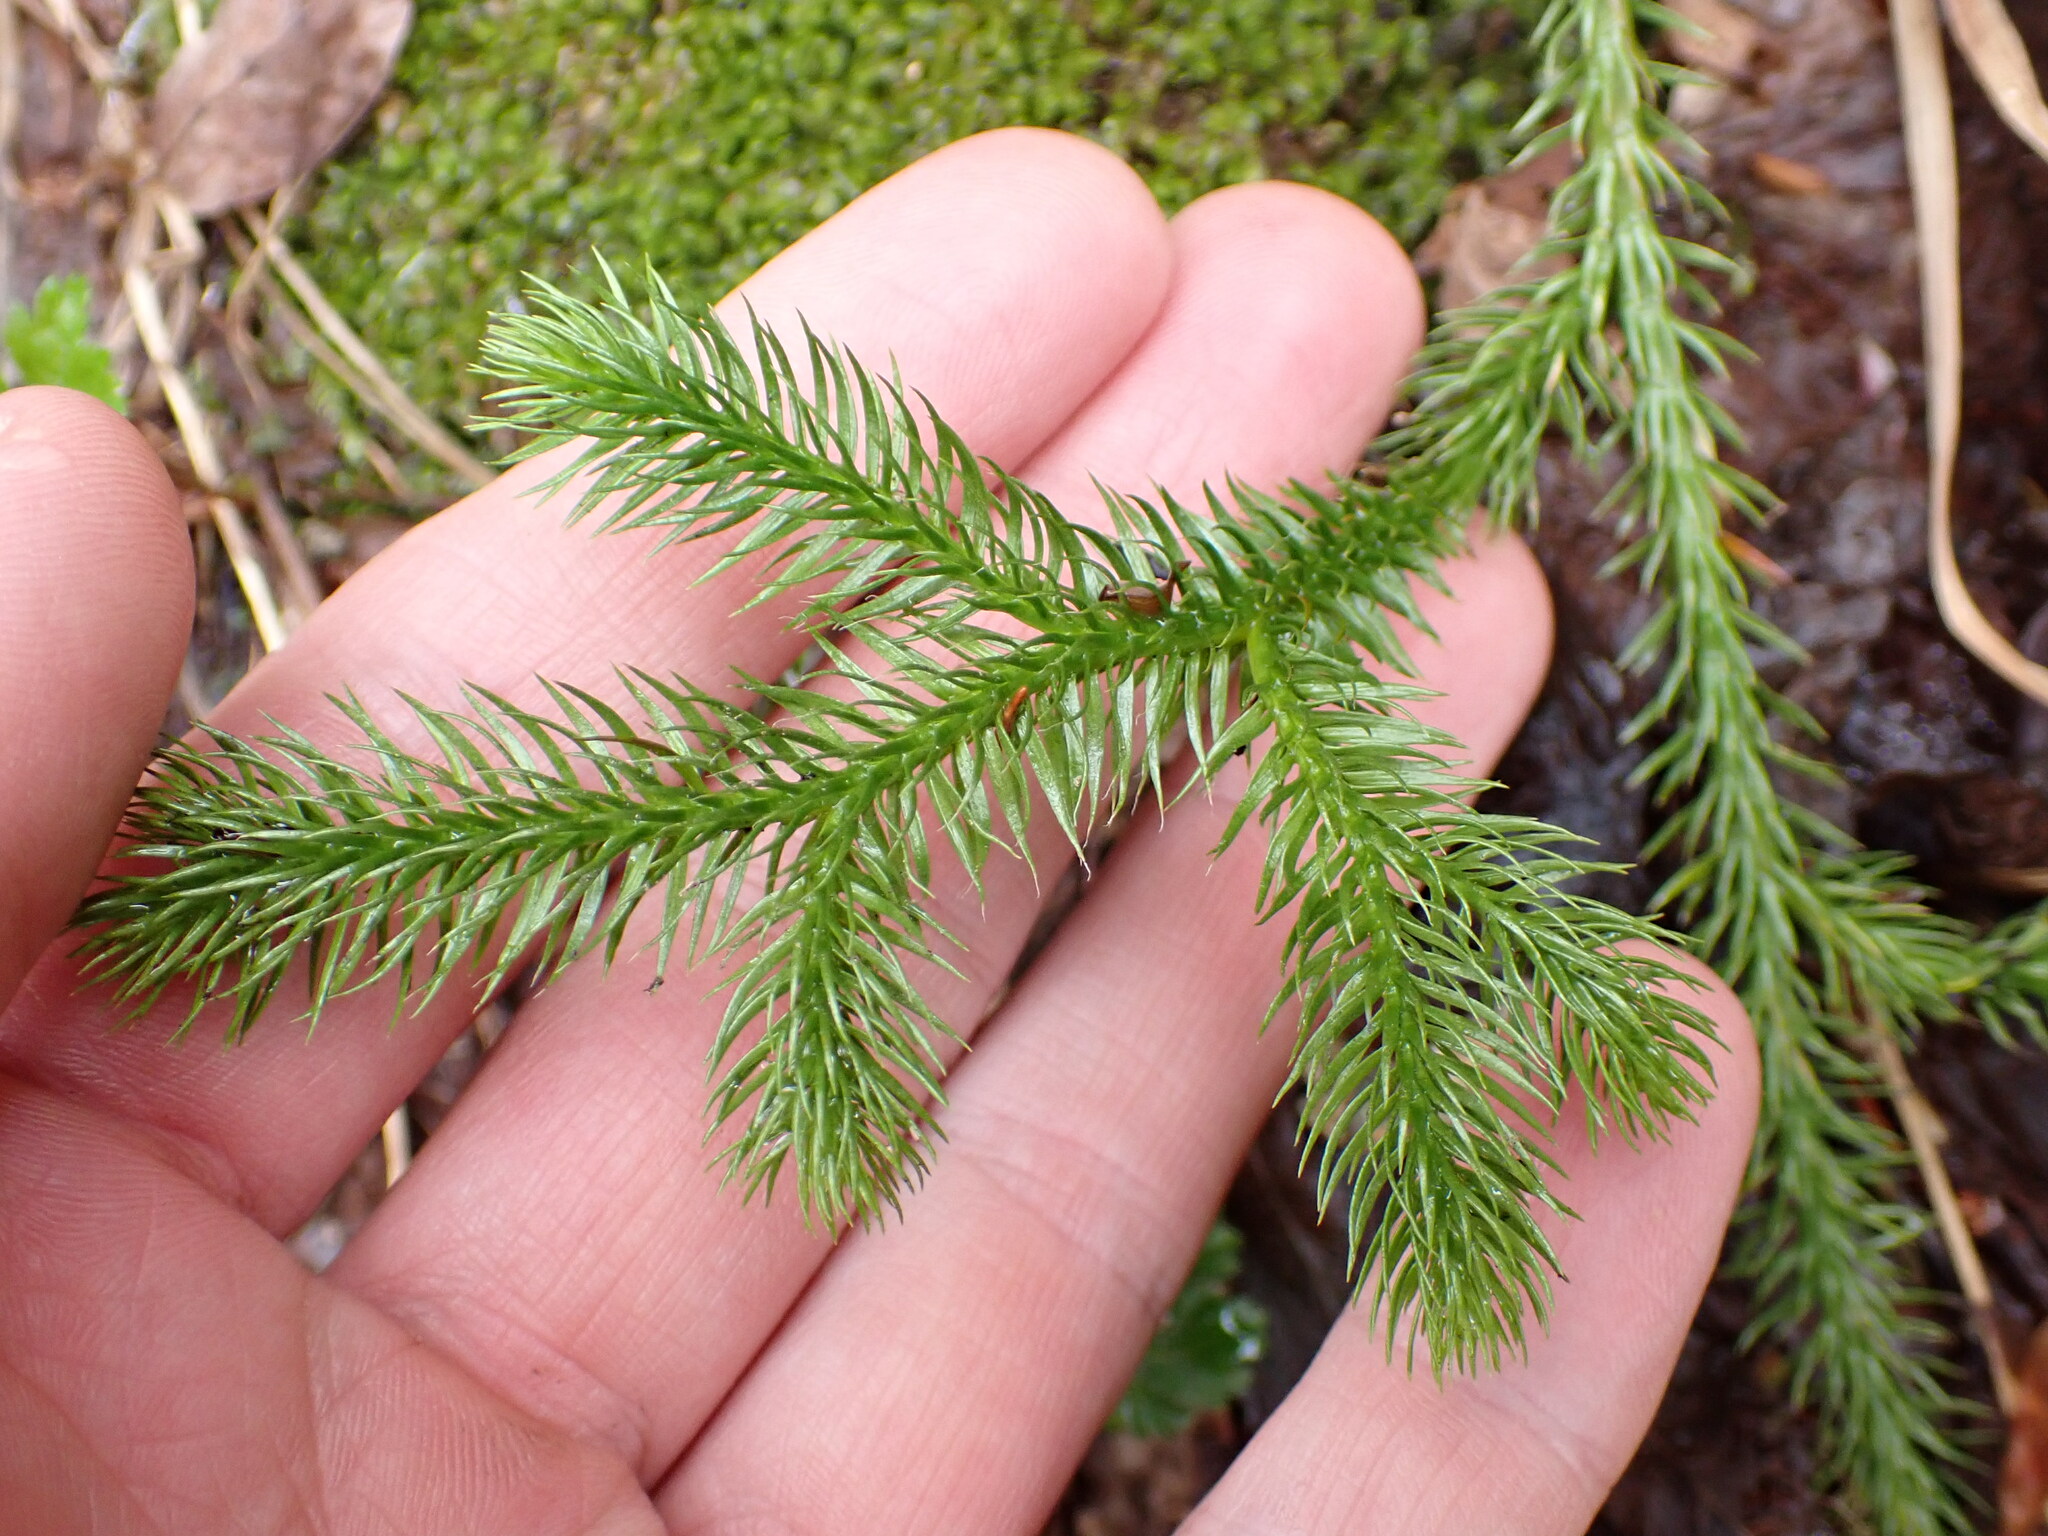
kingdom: Plantae
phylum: Tracheophyta
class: Lycopodiopsida
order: Lycopodiales
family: Lycopodiaceae
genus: Lycopodium
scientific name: Lycopodium clavatum
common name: Stag's-horn clubmoss
